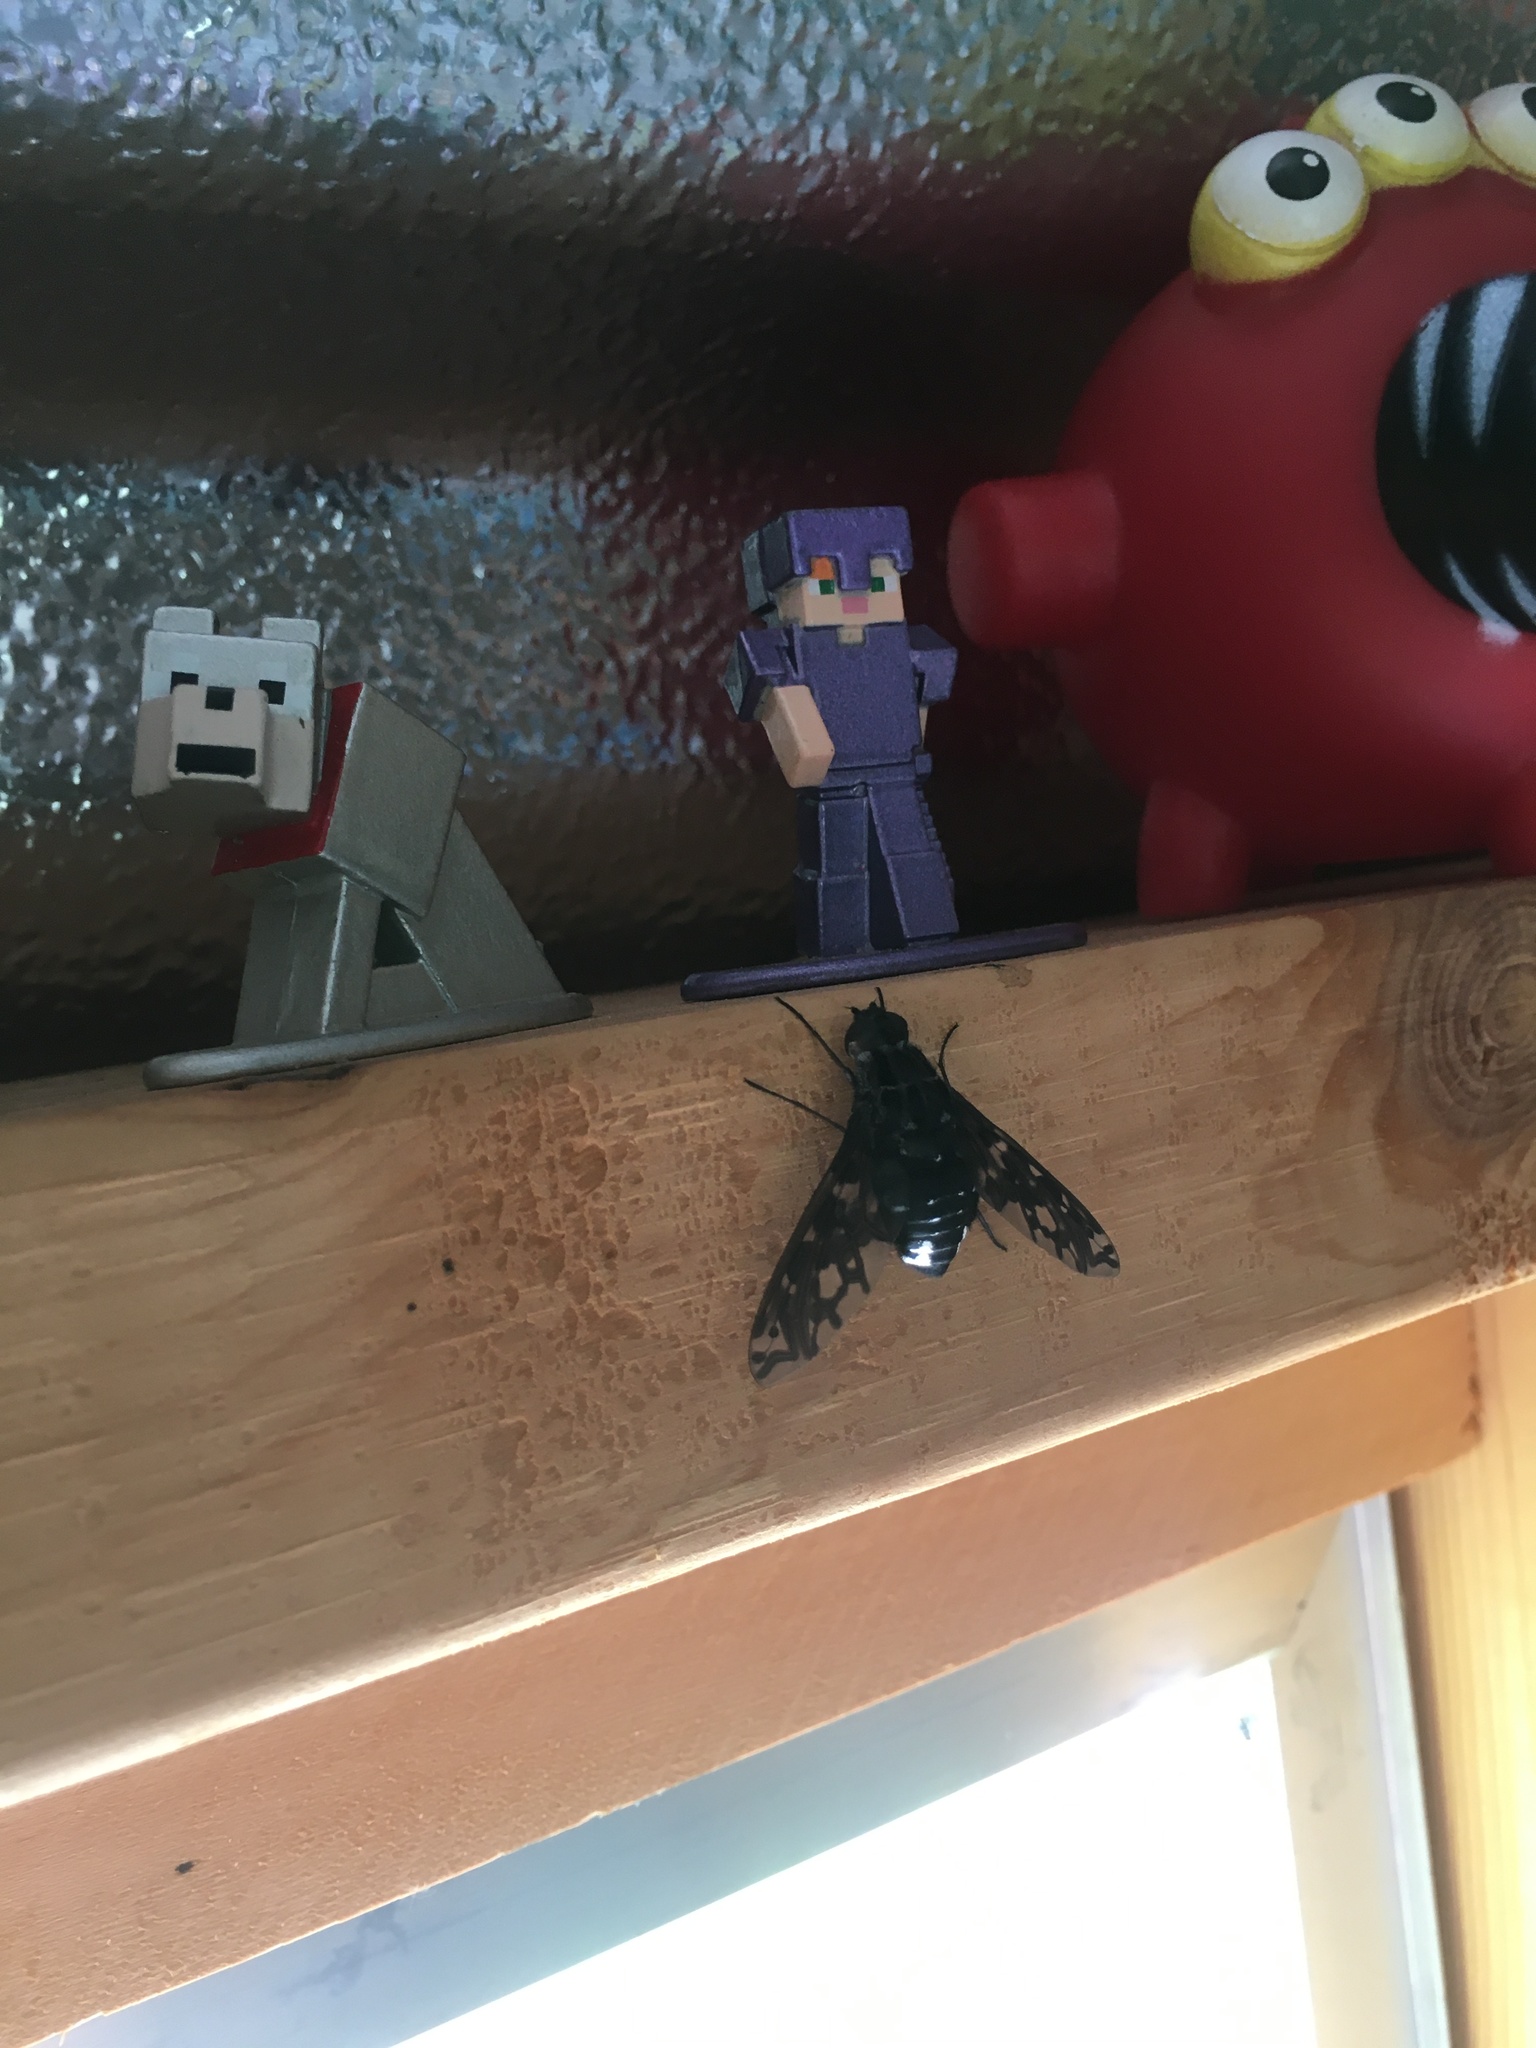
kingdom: Animalia
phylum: Arthropoda
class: Insecta
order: Diptera
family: Bombyliidae
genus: Xenox
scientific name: Xenox tigrinus
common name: Tiger bee fly
